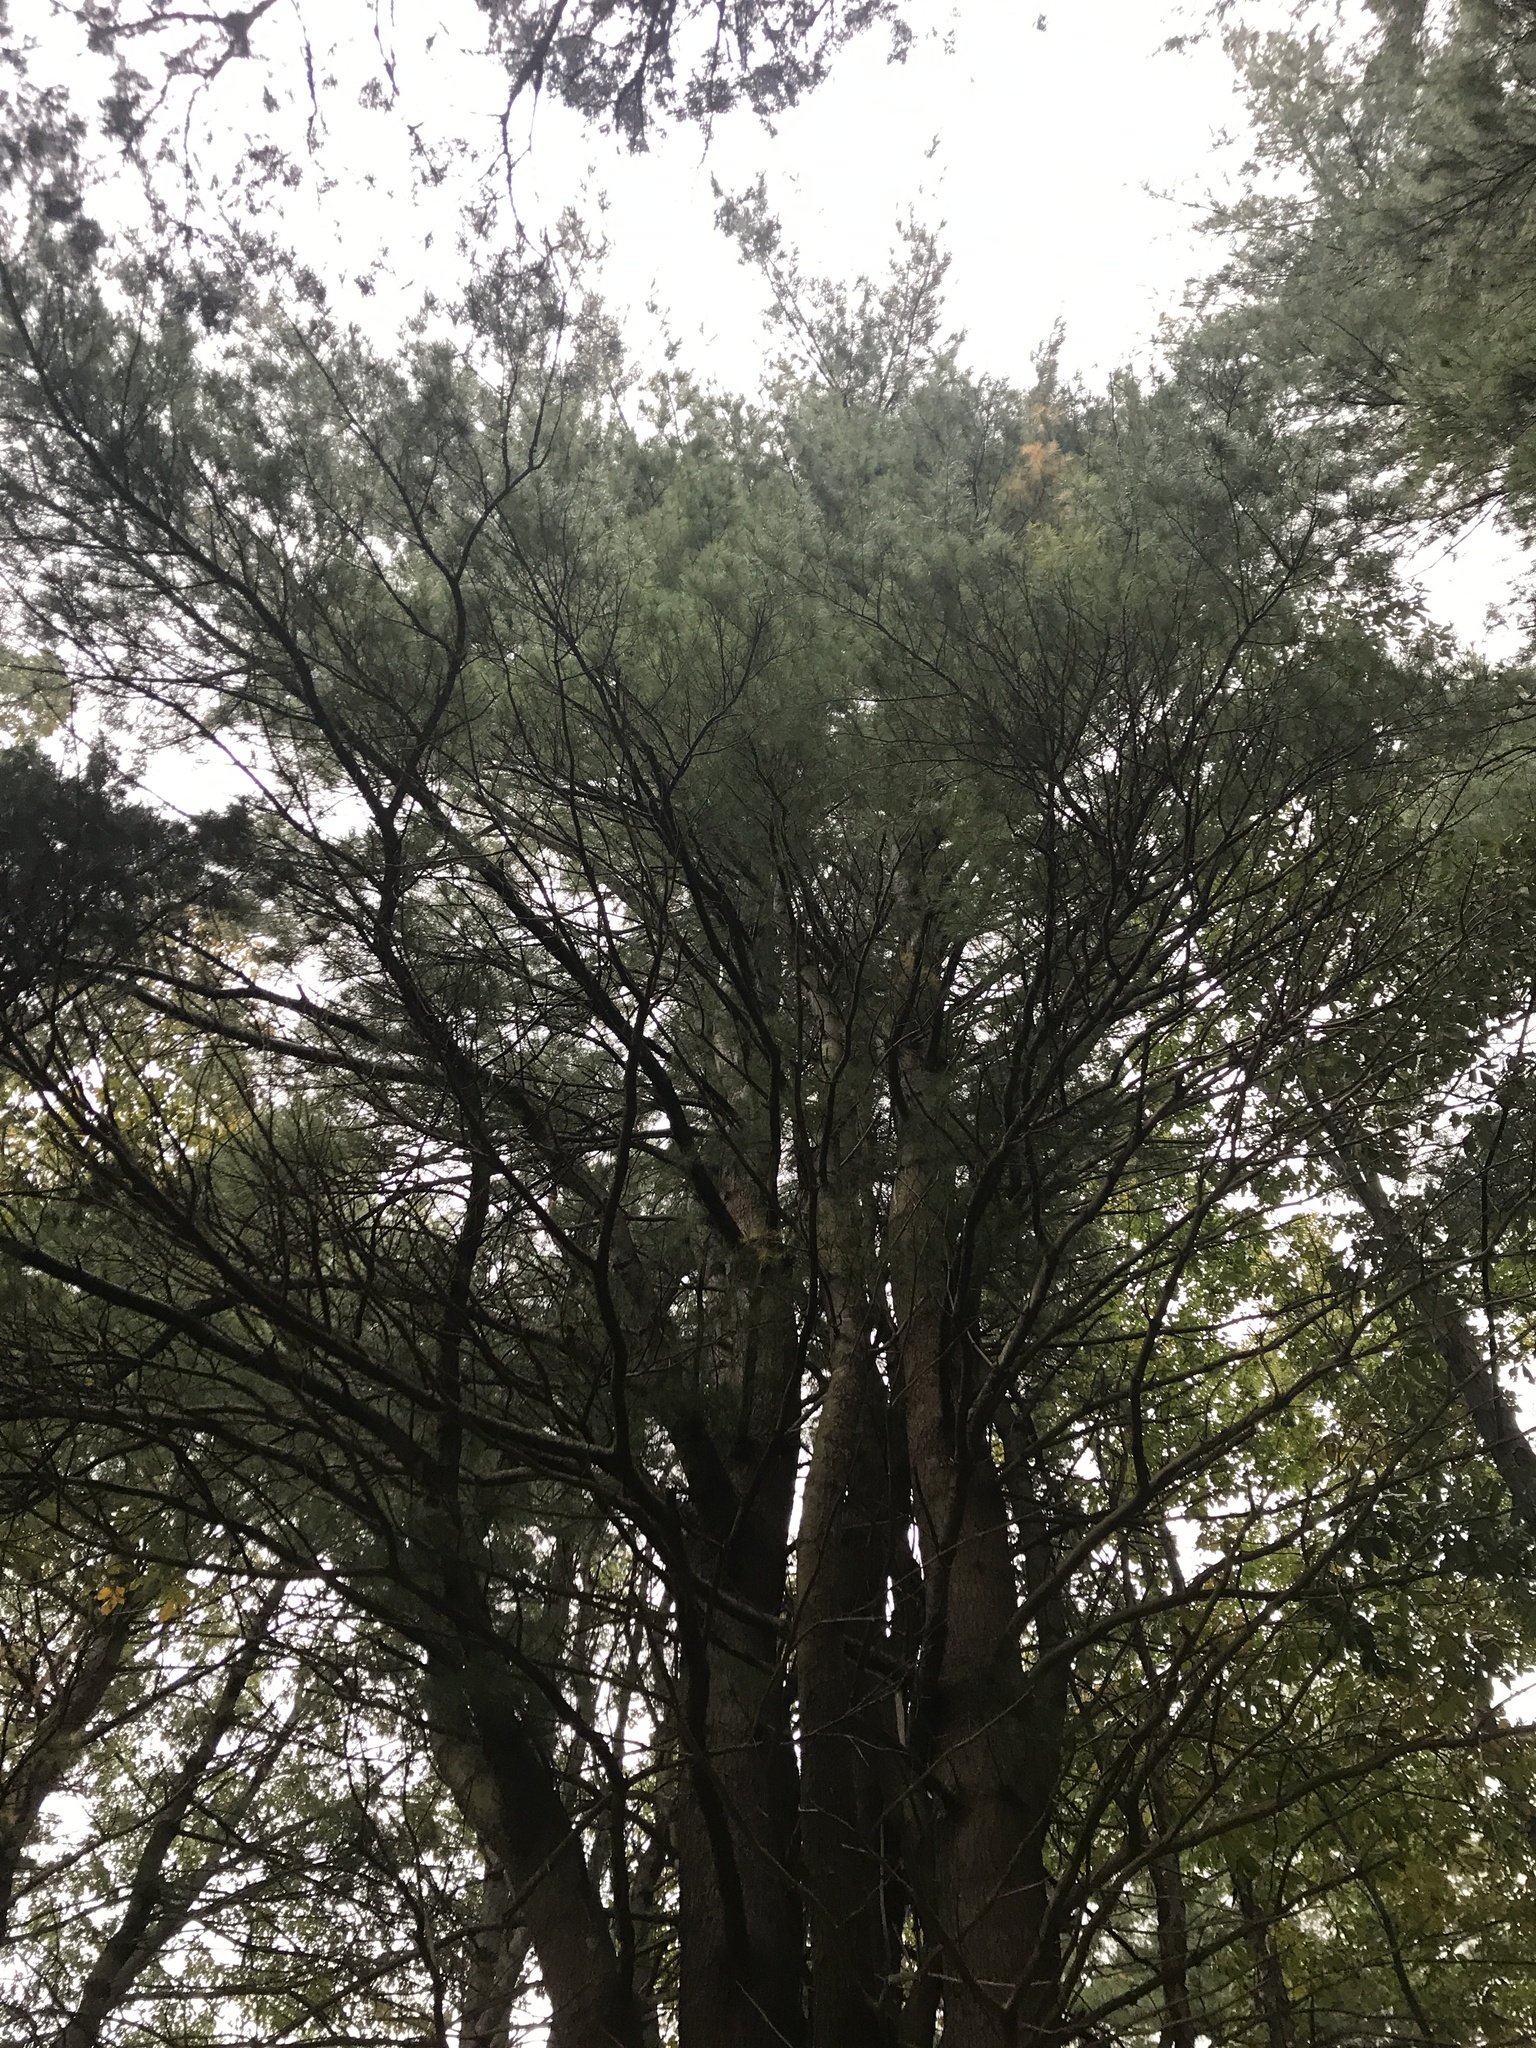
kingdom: Plantae
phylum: Tracheophyta
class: Pinopsida
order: Pinales
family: Pinaceae
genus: Pinus
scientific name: Pinus strobus
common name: Weymouth pine
